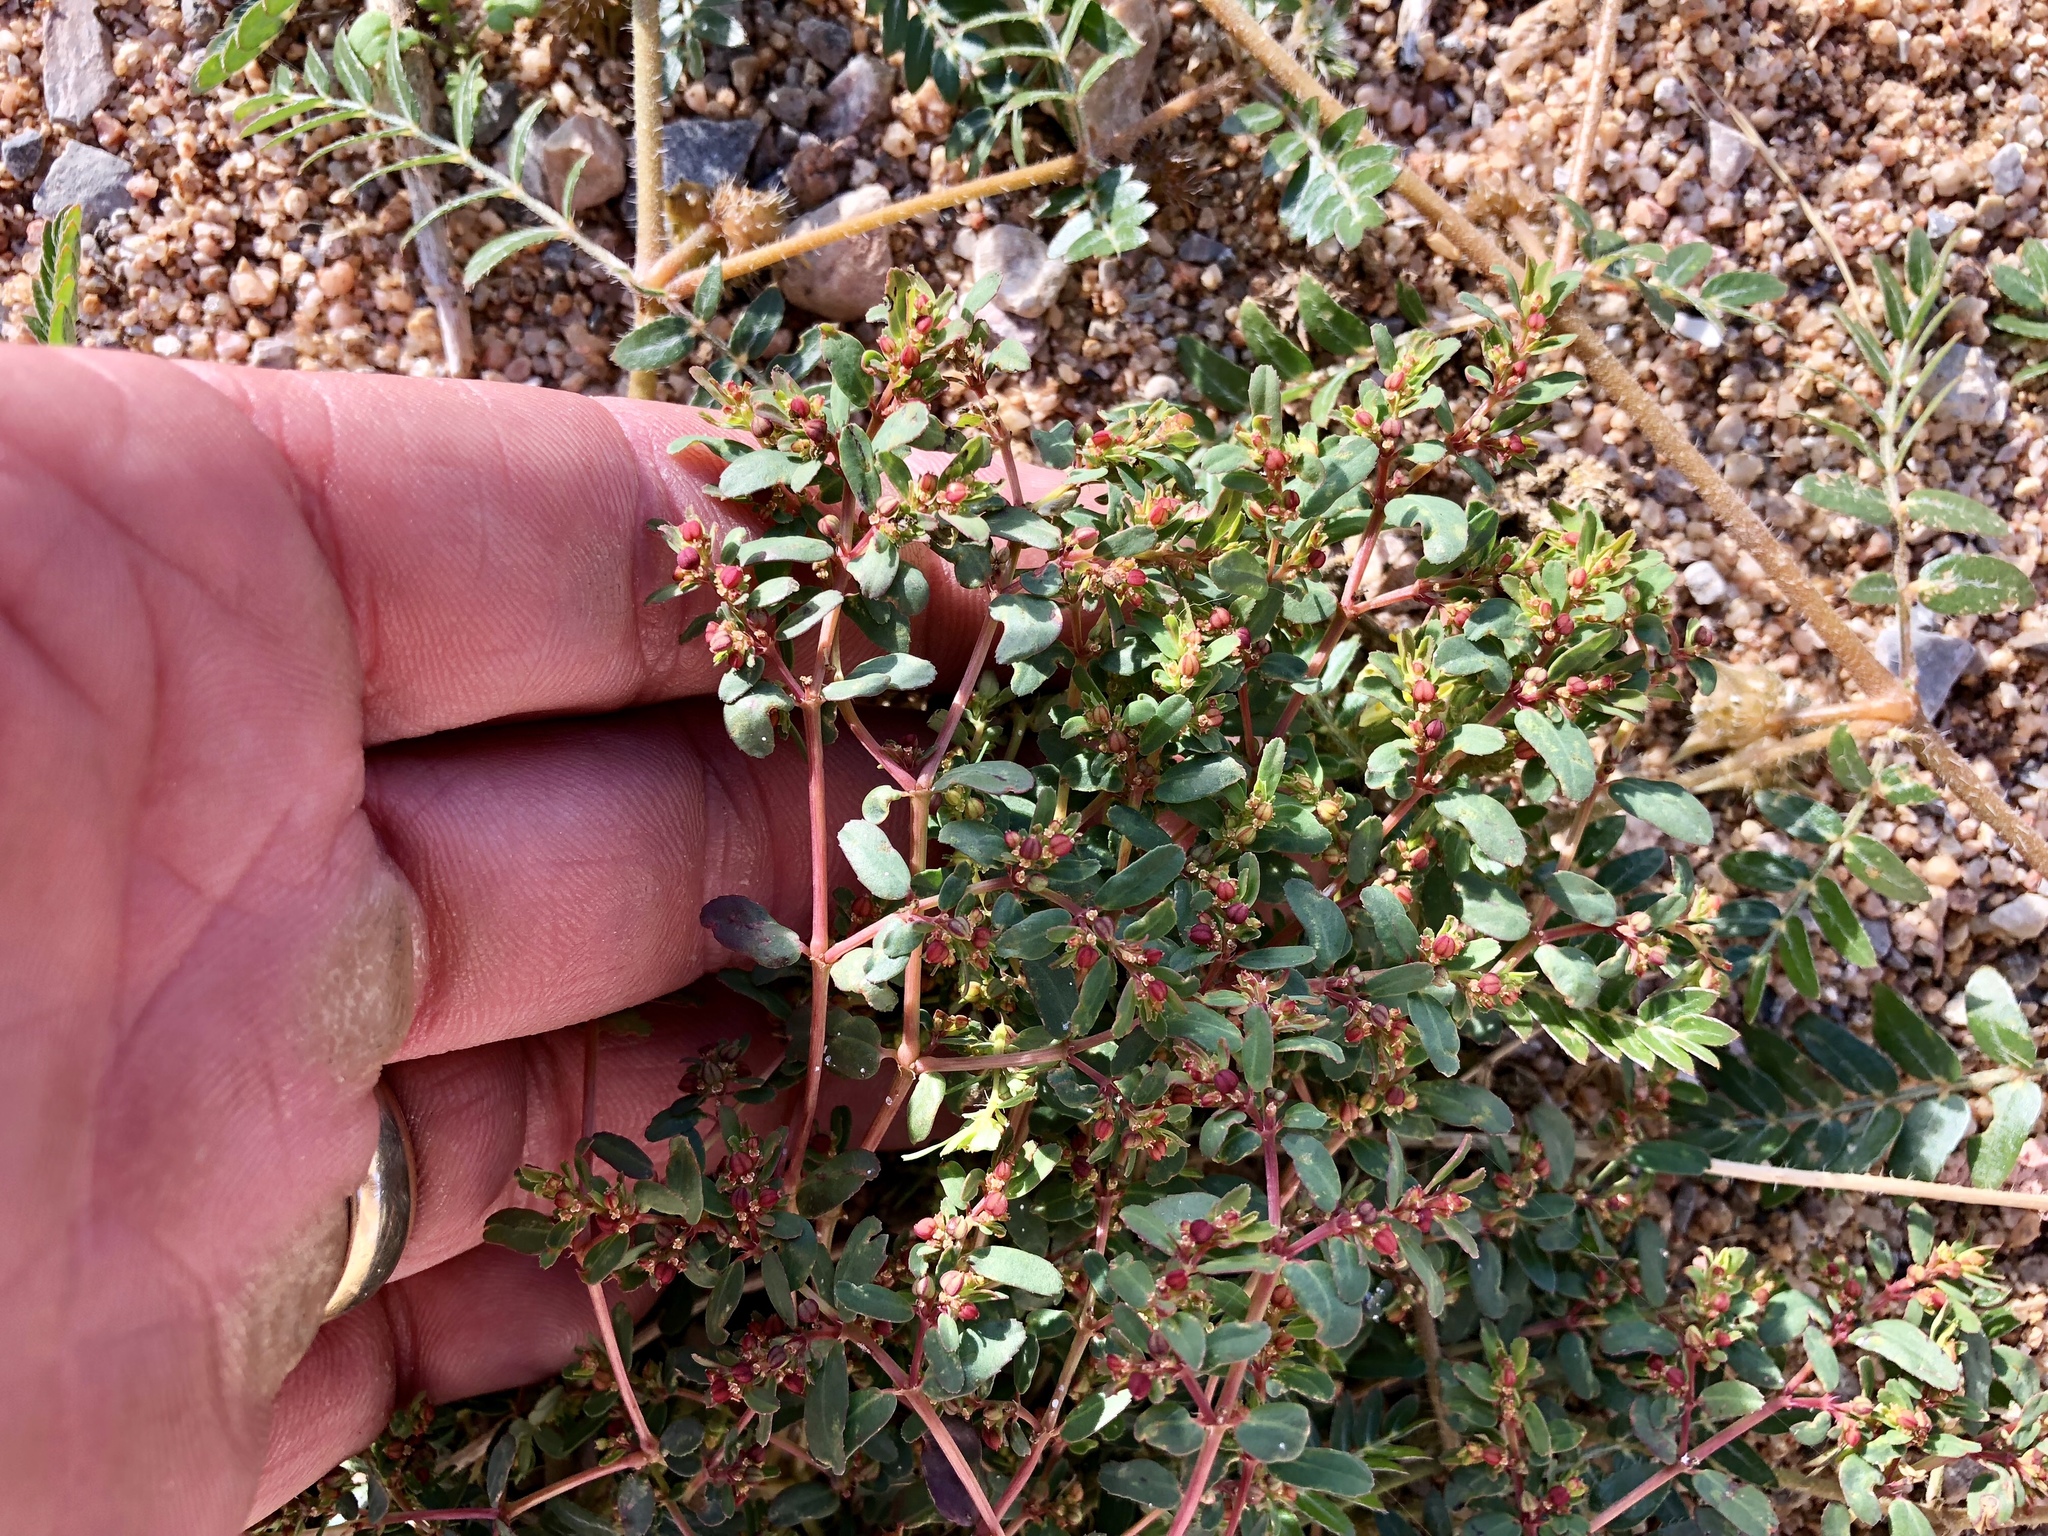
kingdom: Plantae
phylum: Tracheophyta
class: Magnoliopsida
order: Malpighiales
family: Euphorbiaceae
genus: Euphorbia
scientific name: Euphorbia serpillifolia
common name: Thyme-leaf spurge
